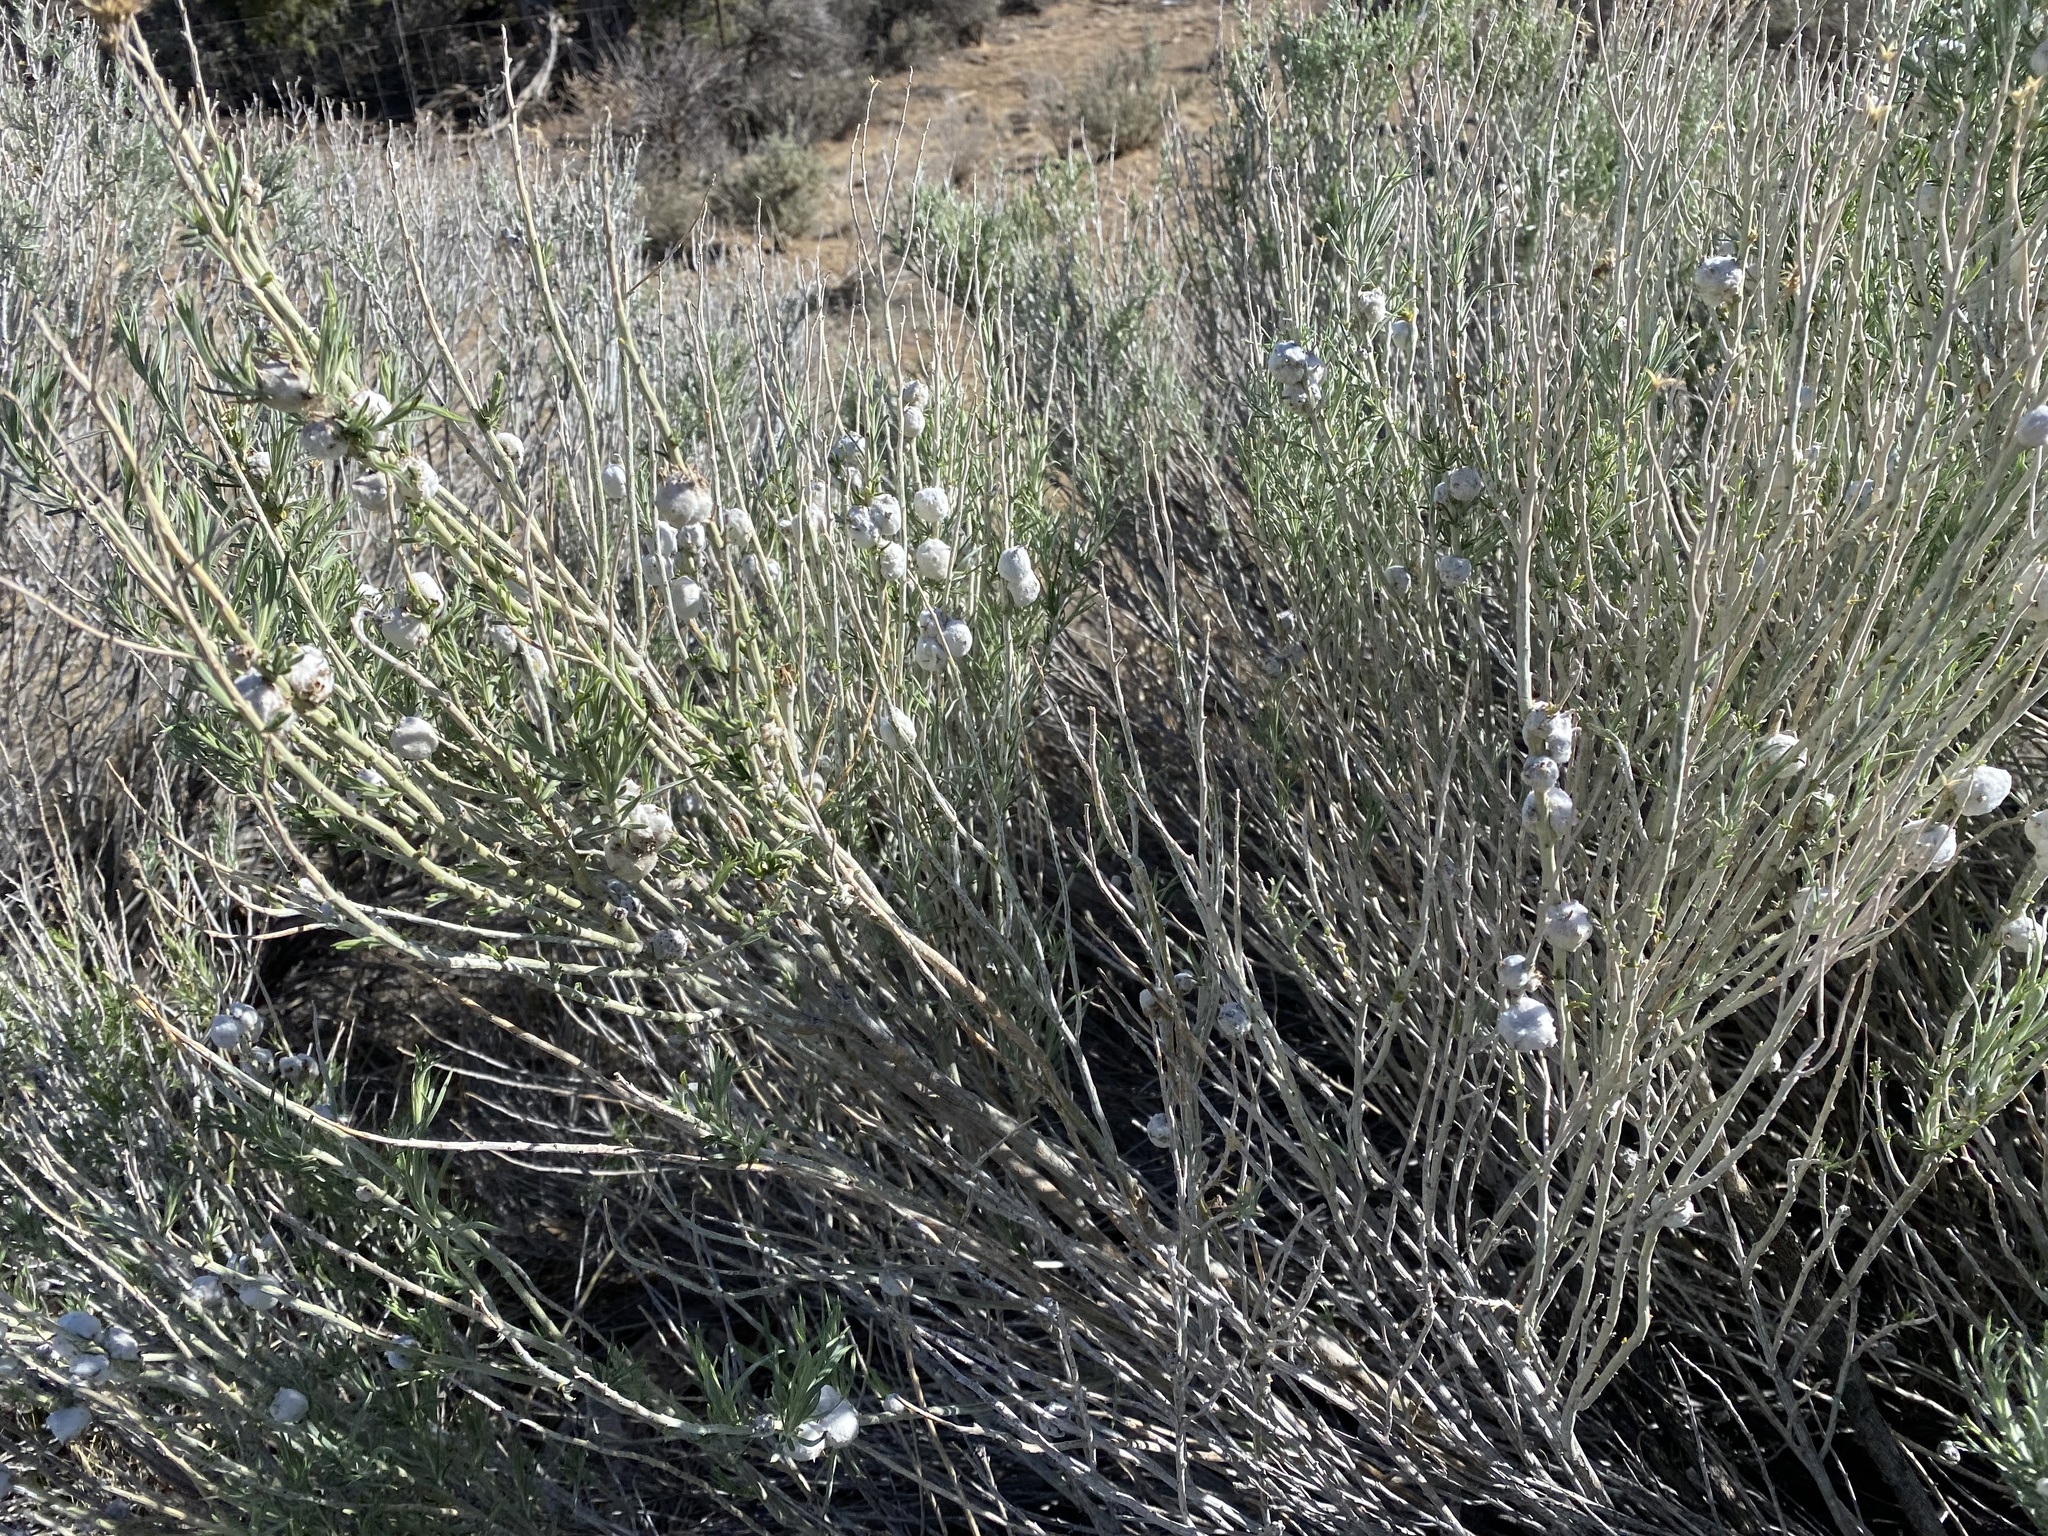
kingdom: Plantae
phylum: Tracheophyta
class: Magnoliopsida
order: Asterales
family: Asteraceae
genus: Ericameria
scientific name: Ericameria nauseosa
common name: Rubber rabbitbrush
